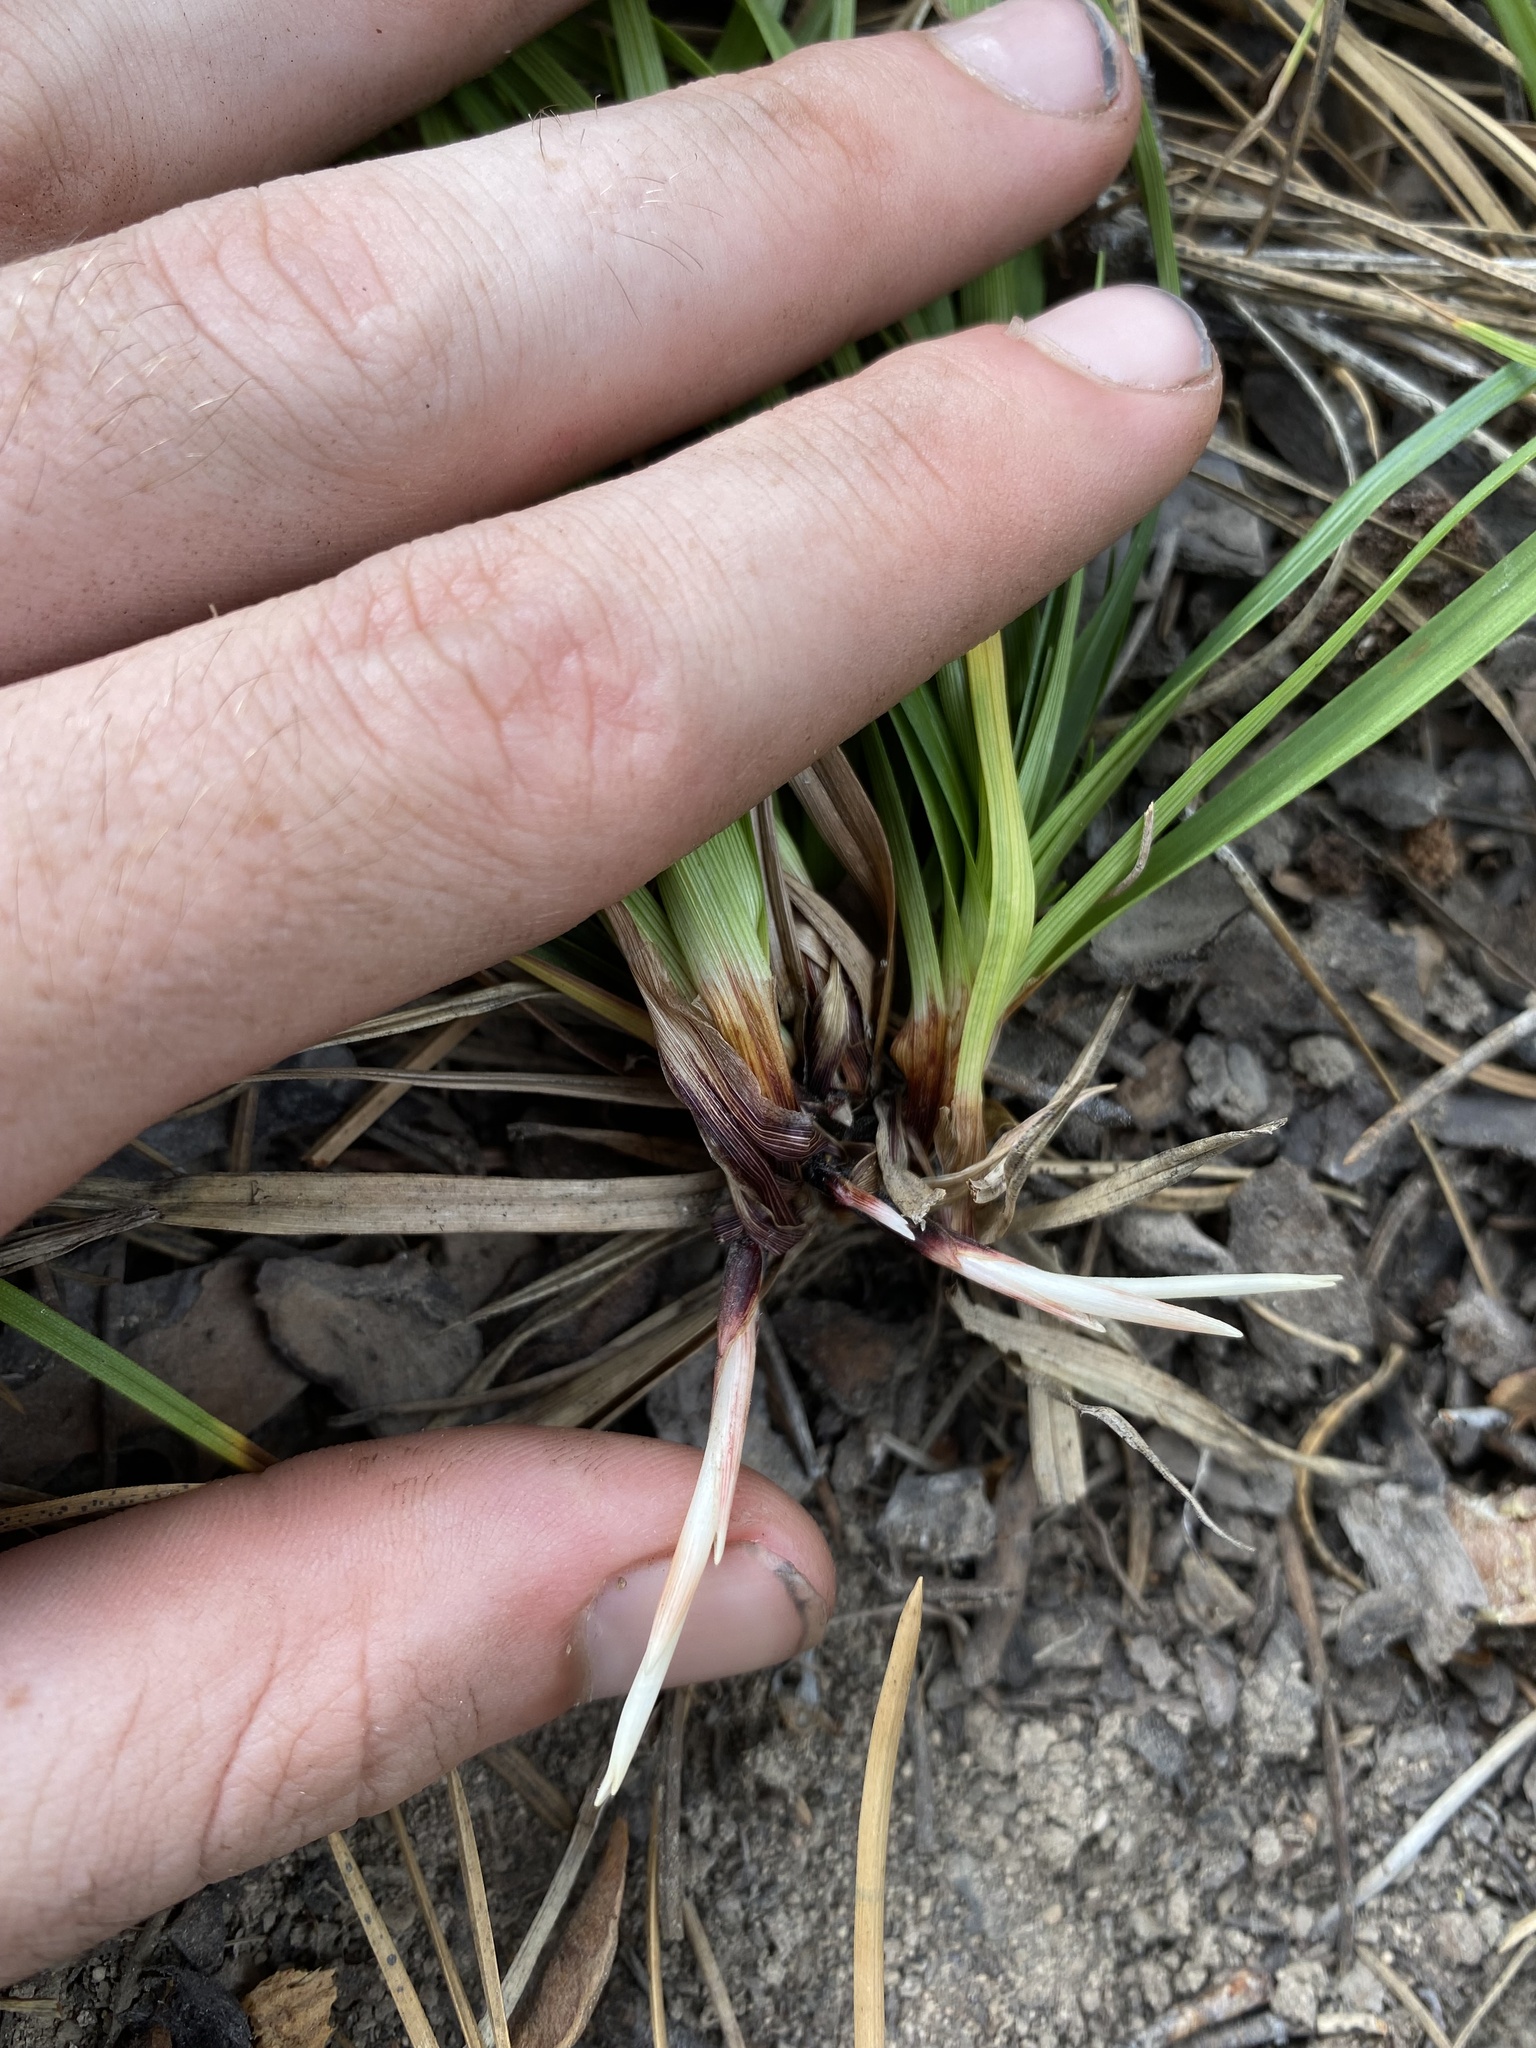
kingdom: Plantae
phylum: Tracheophyta
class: Liliopsida
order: Poales
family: Cyperaceae
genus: Carex
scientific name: Carex concinnoides
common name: Northwest sedge
